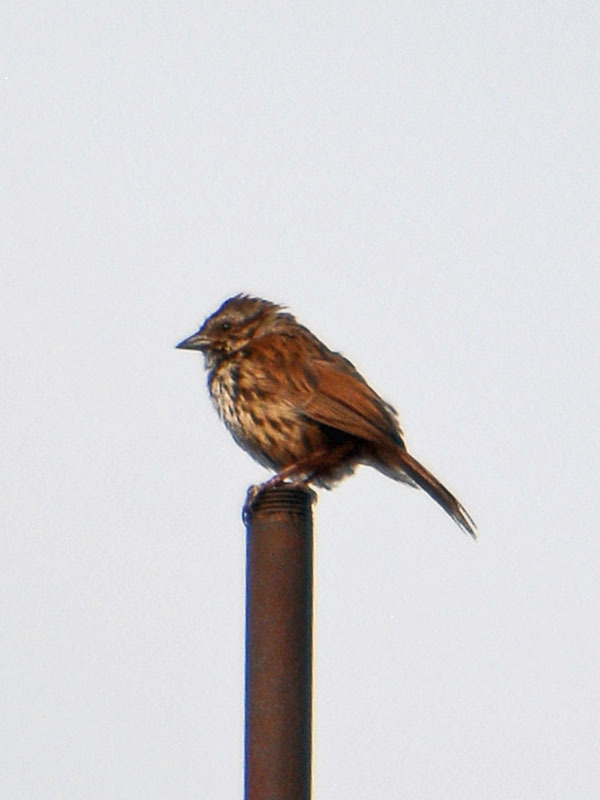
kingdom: Animalia
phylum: Chordata
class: Aves
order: Passeriformes
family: Passerellidae
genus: Melospiza
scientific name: Melospiza melodia
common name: Song sparrow
